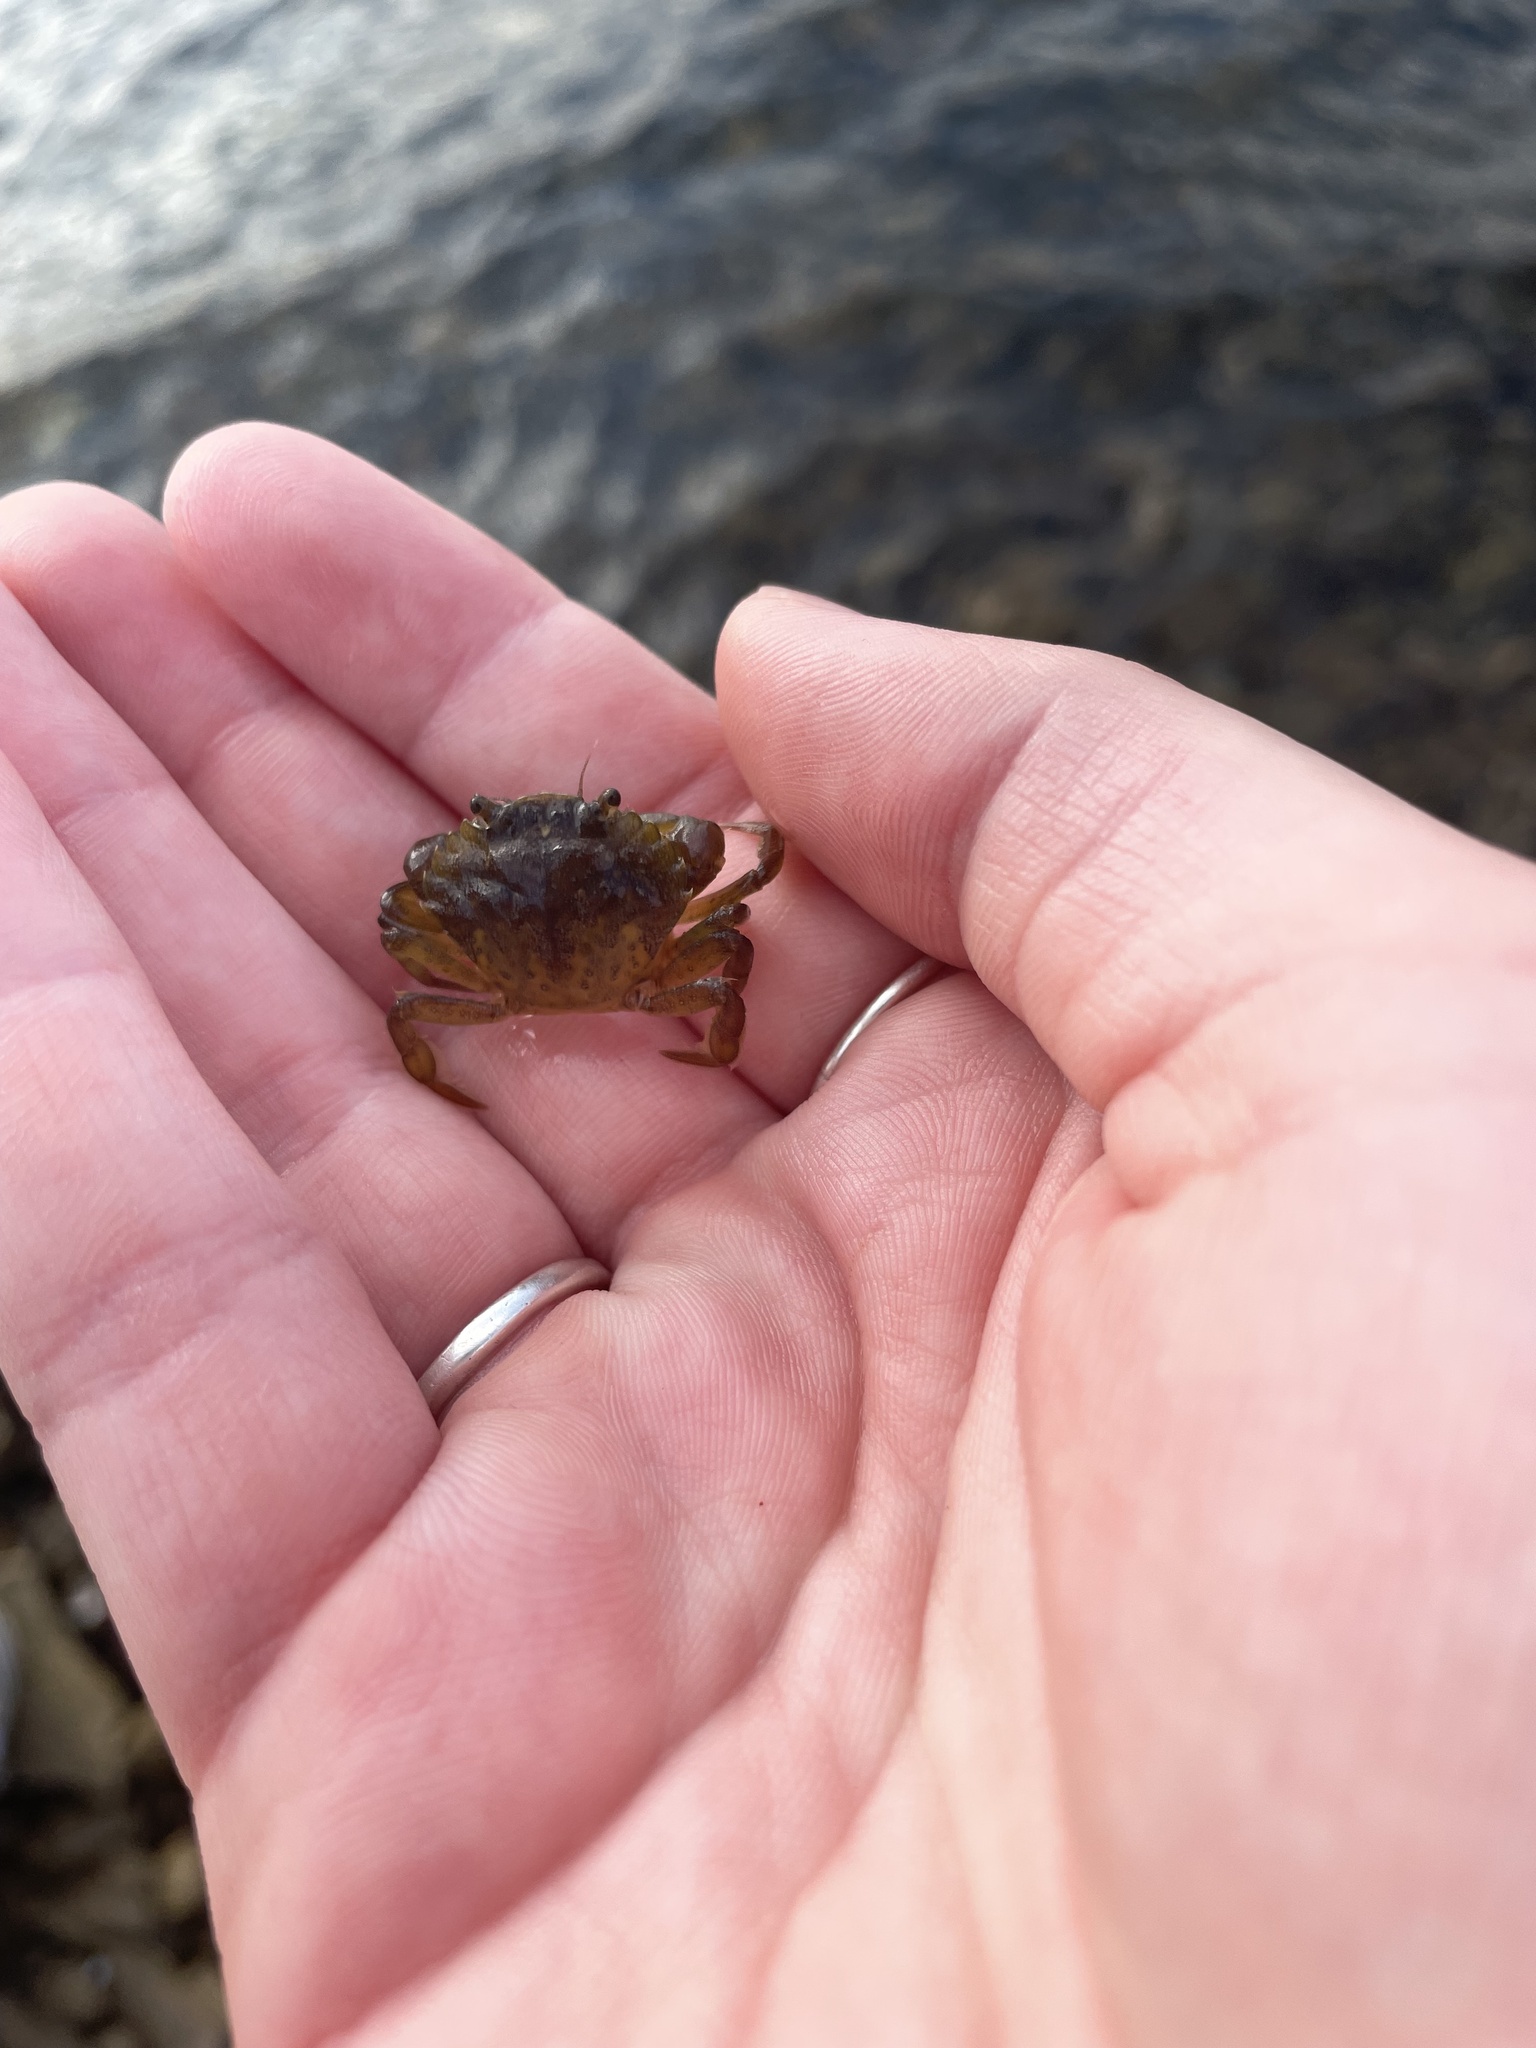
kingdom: Animalia
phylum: Arthropoda
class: Malacostraca
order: Decapoda
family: Carcinidae
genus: Carcinus
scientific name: Carcinus maenas
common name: European green crab
